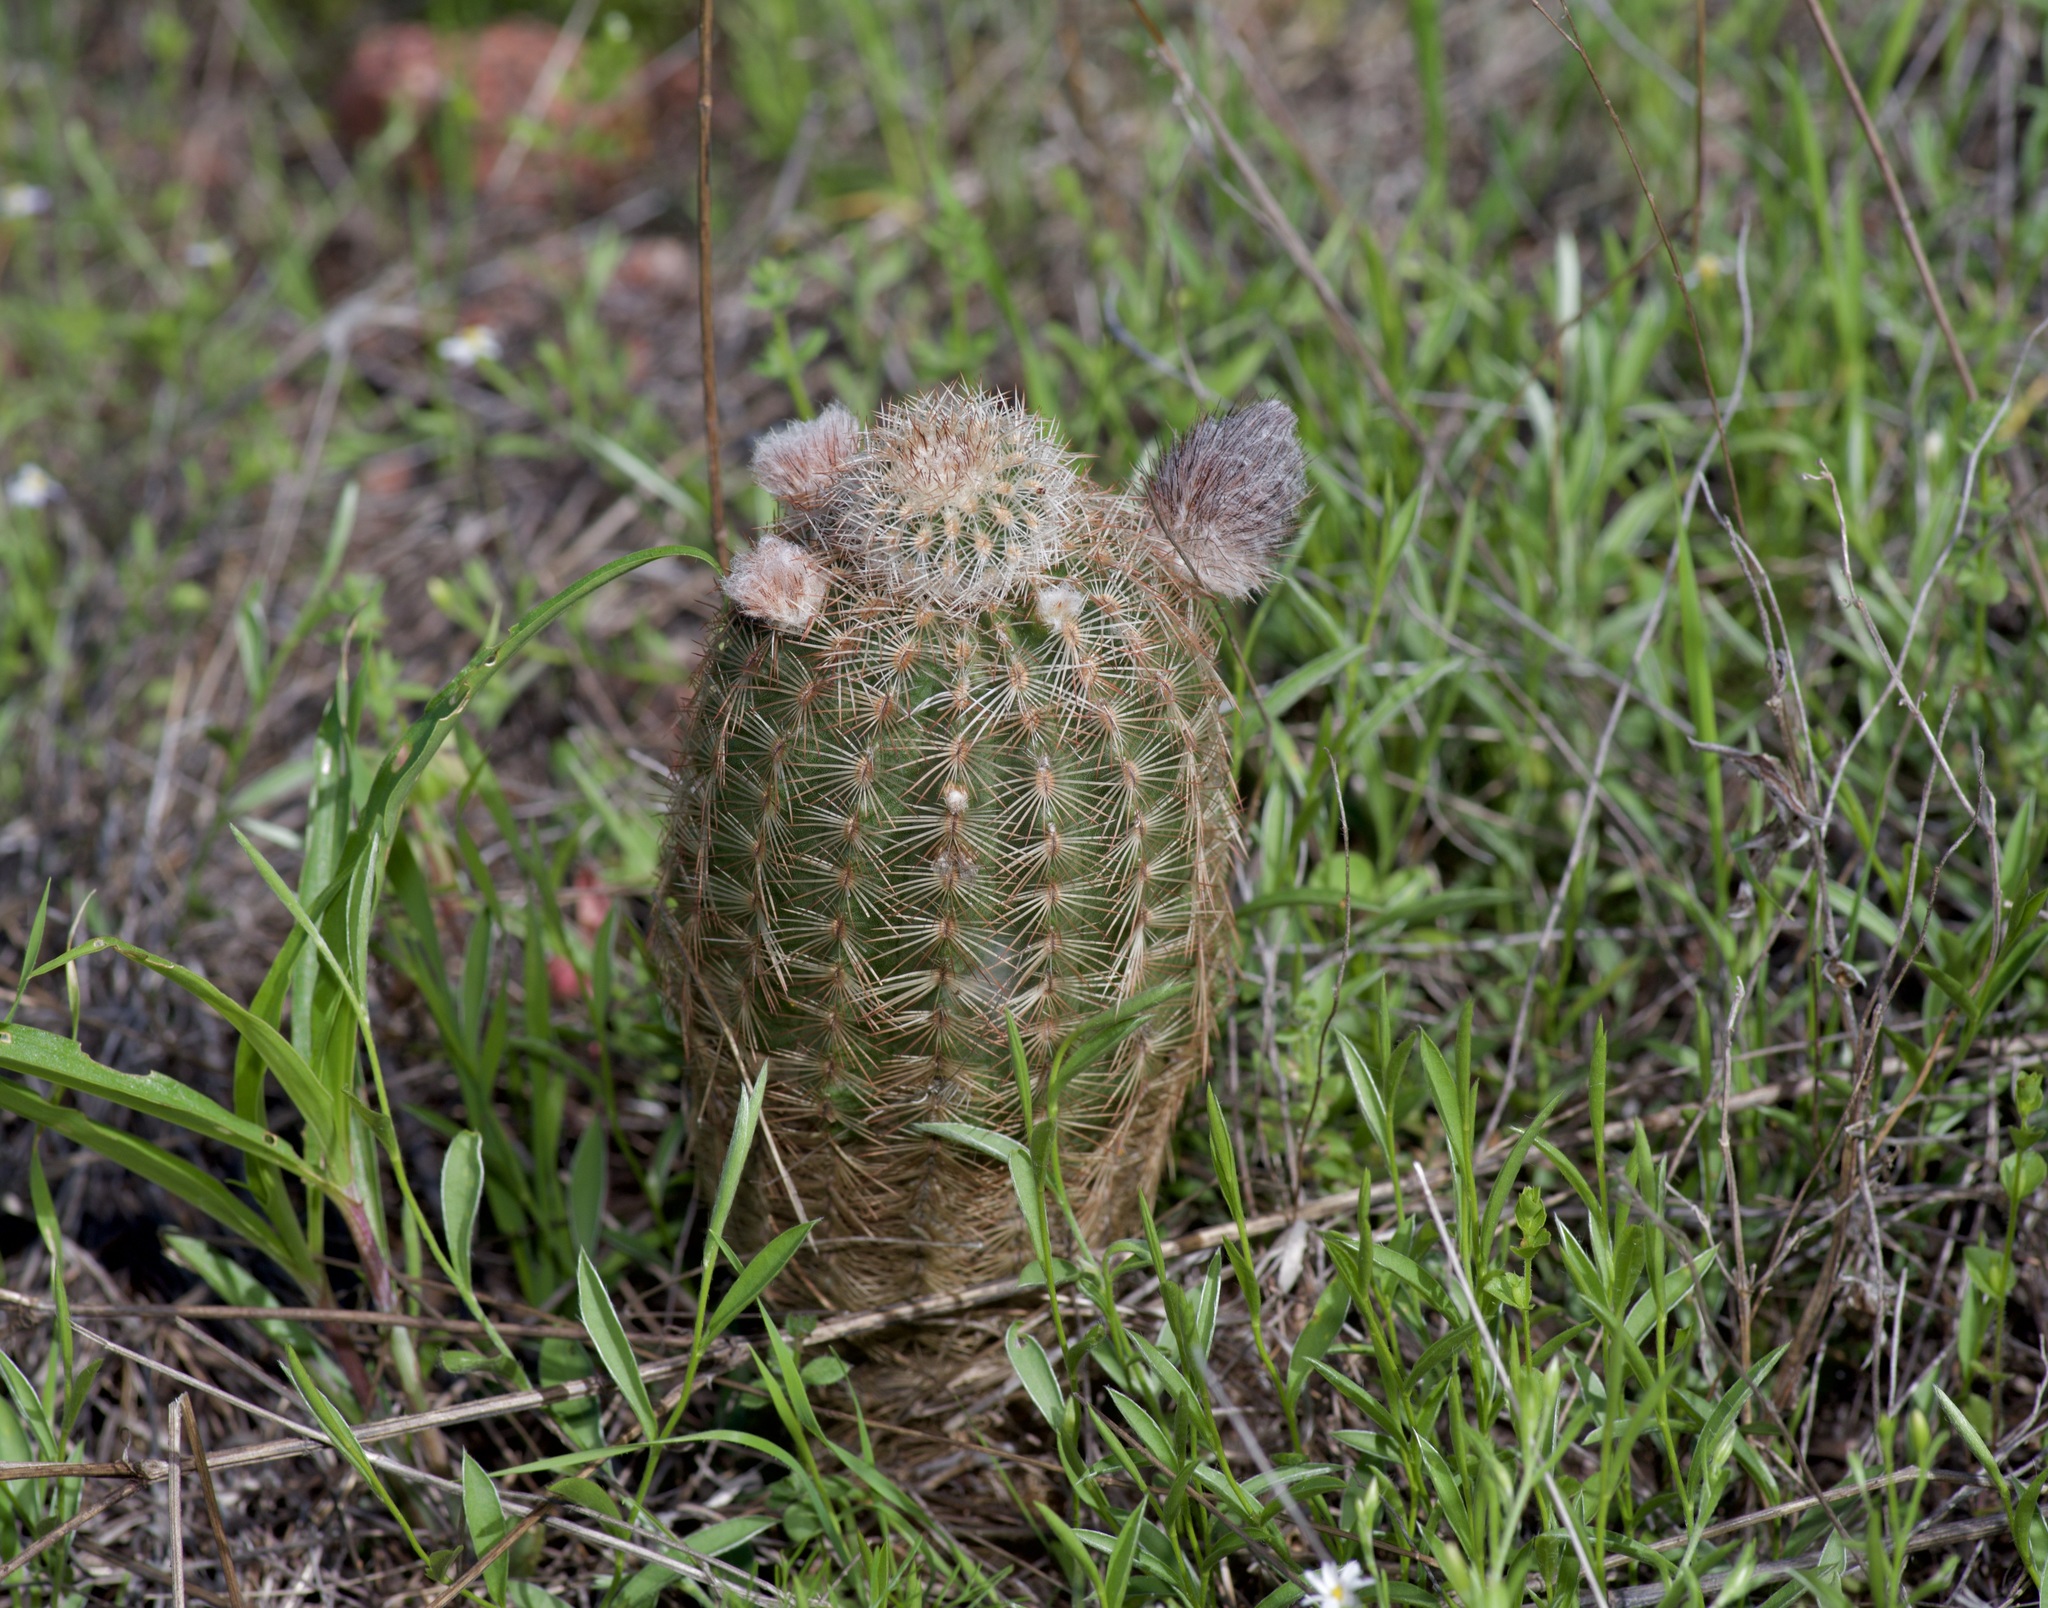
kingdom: Plantae
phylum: Tracheophyta
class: Magnoliopsida
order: Caryophyllales
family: Cactaceae
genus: Echinocereus
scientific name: Echinocereus reichenbachii
